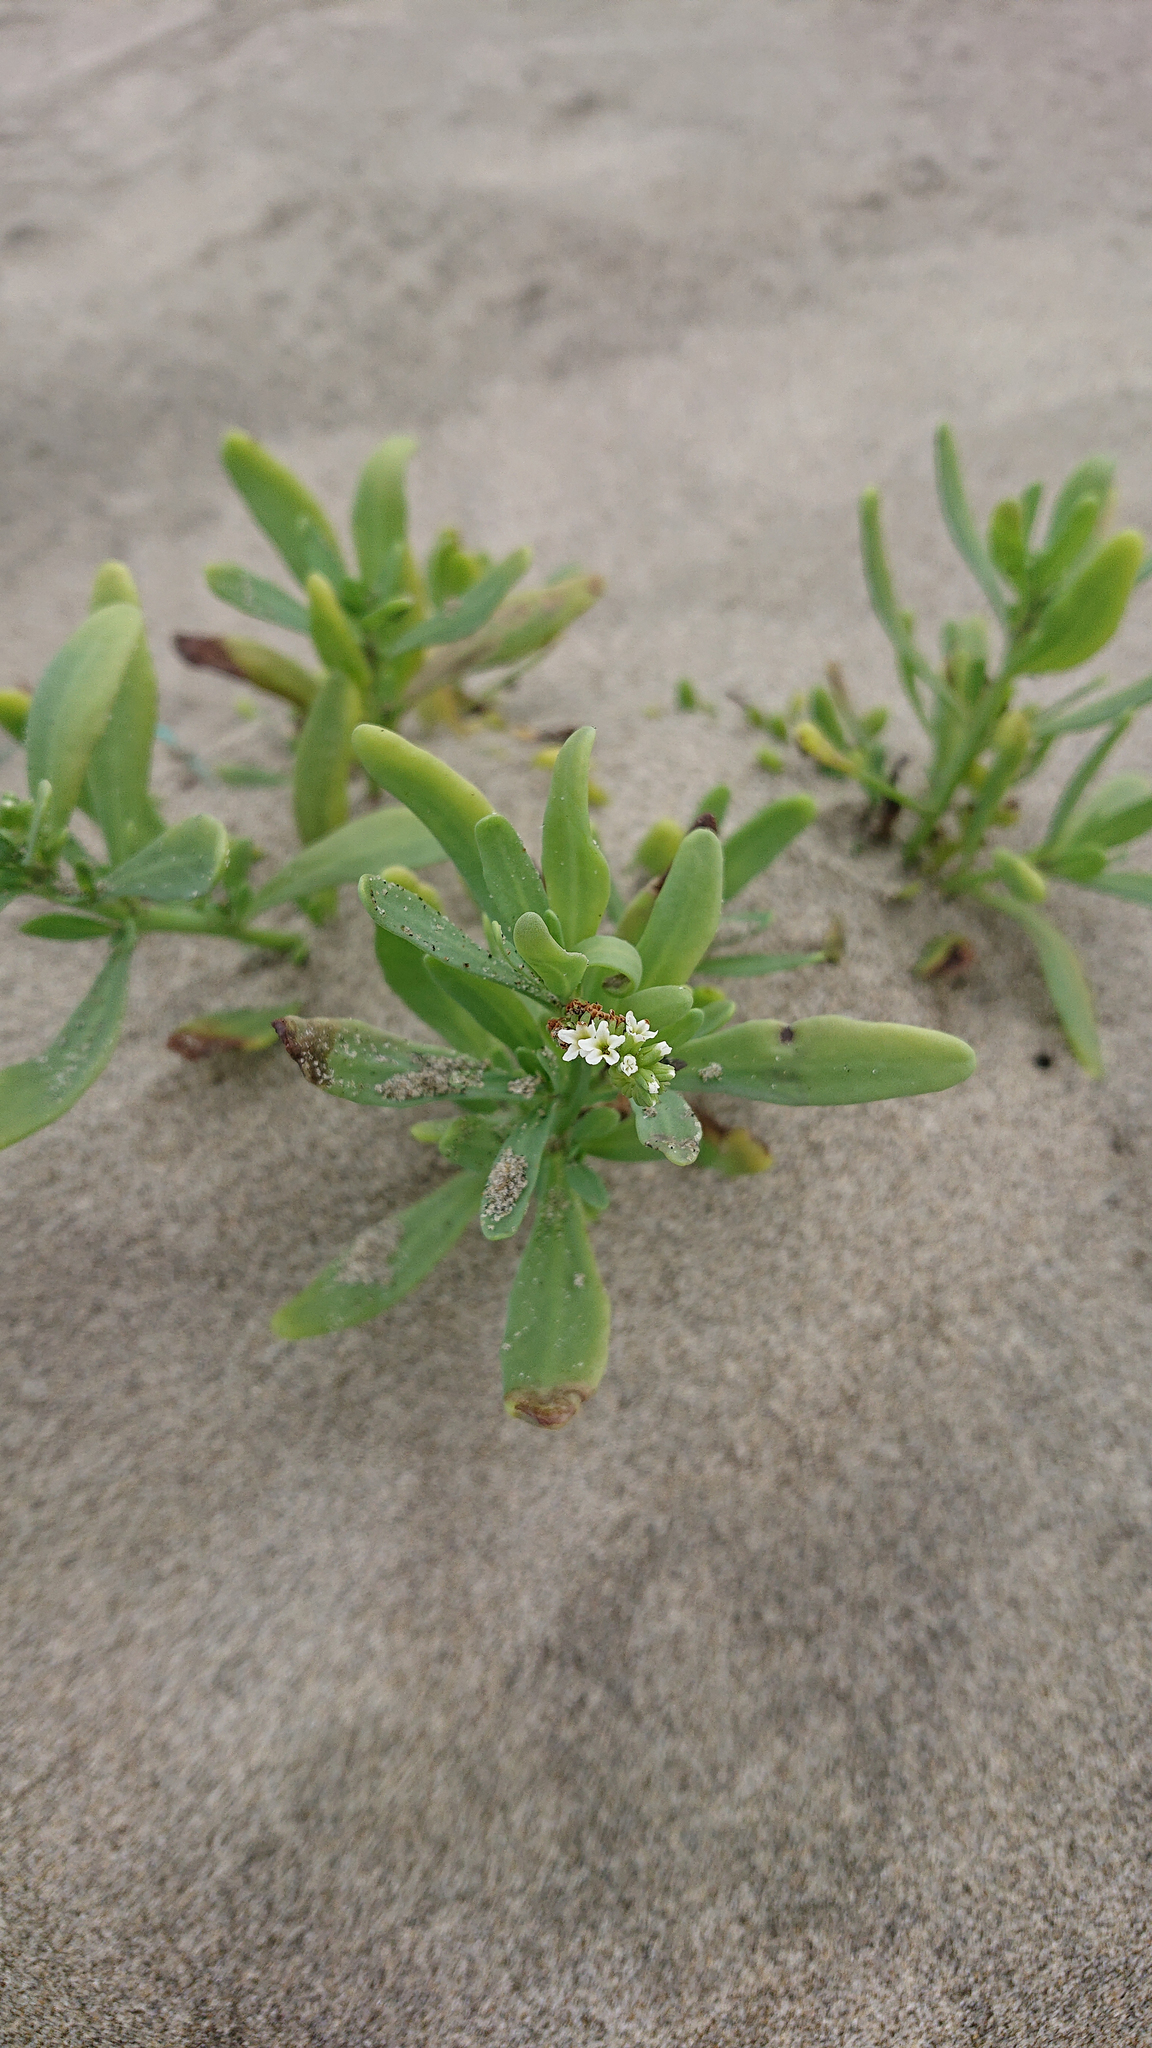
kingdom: Plantae
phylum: Tracheophyta
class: Magnoliopsida
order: Boraginales
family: Heliotropiaceae
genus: Heliotropium
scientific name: Heliotropium curassavicum
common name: Seaside heliotrope
